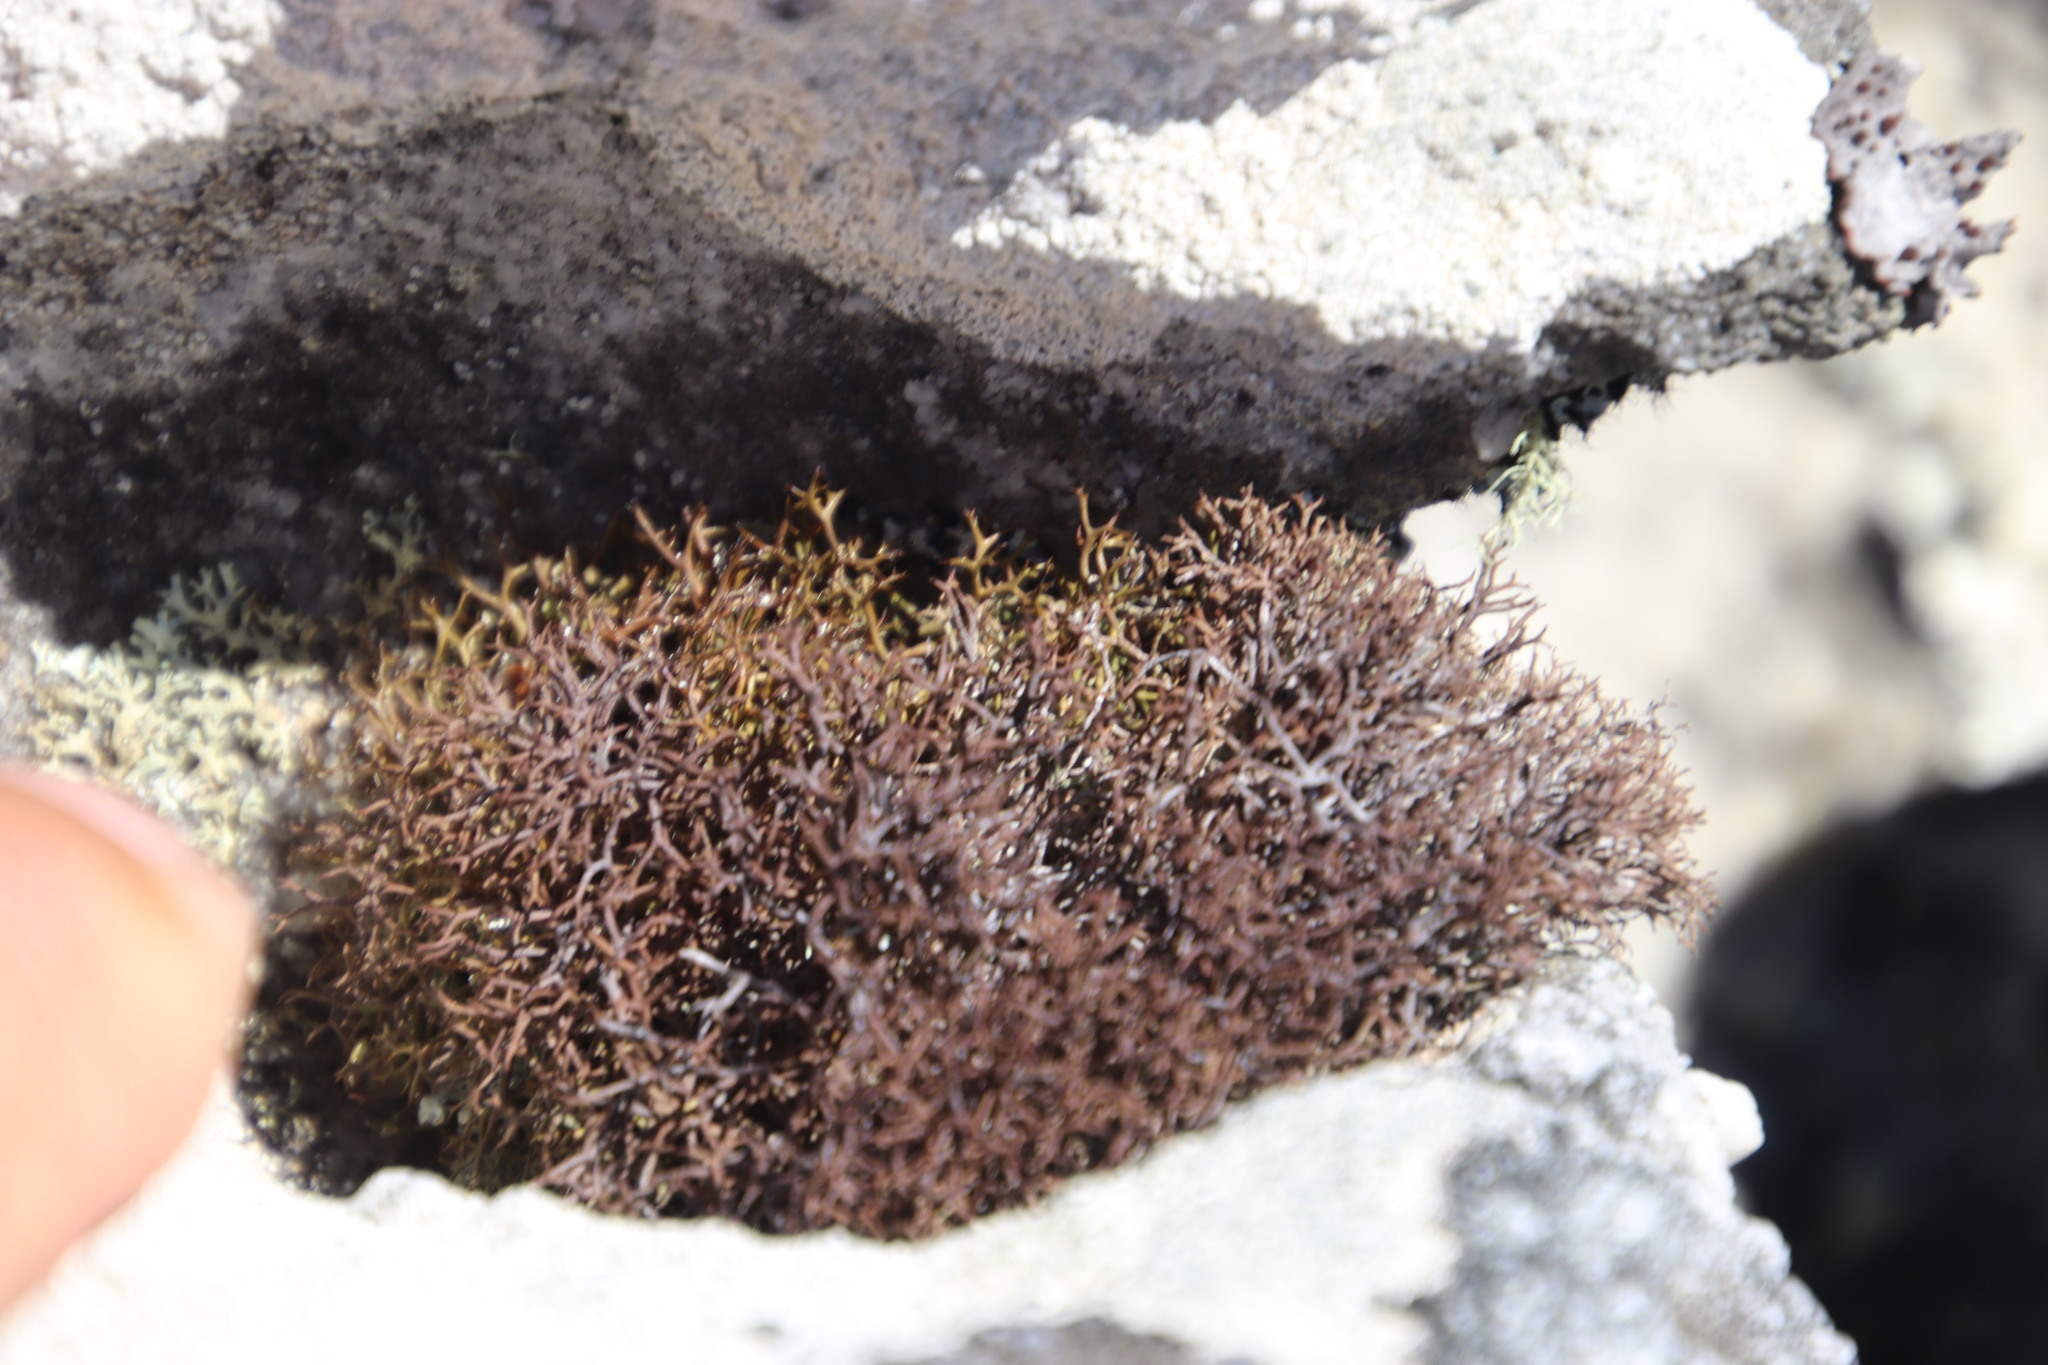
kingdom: Fungi
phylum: Ascomycota
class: Lecanoromycetes
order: Lecanorales
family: Cladoniaceae
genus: Cladia
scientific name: Cladia aggregata
